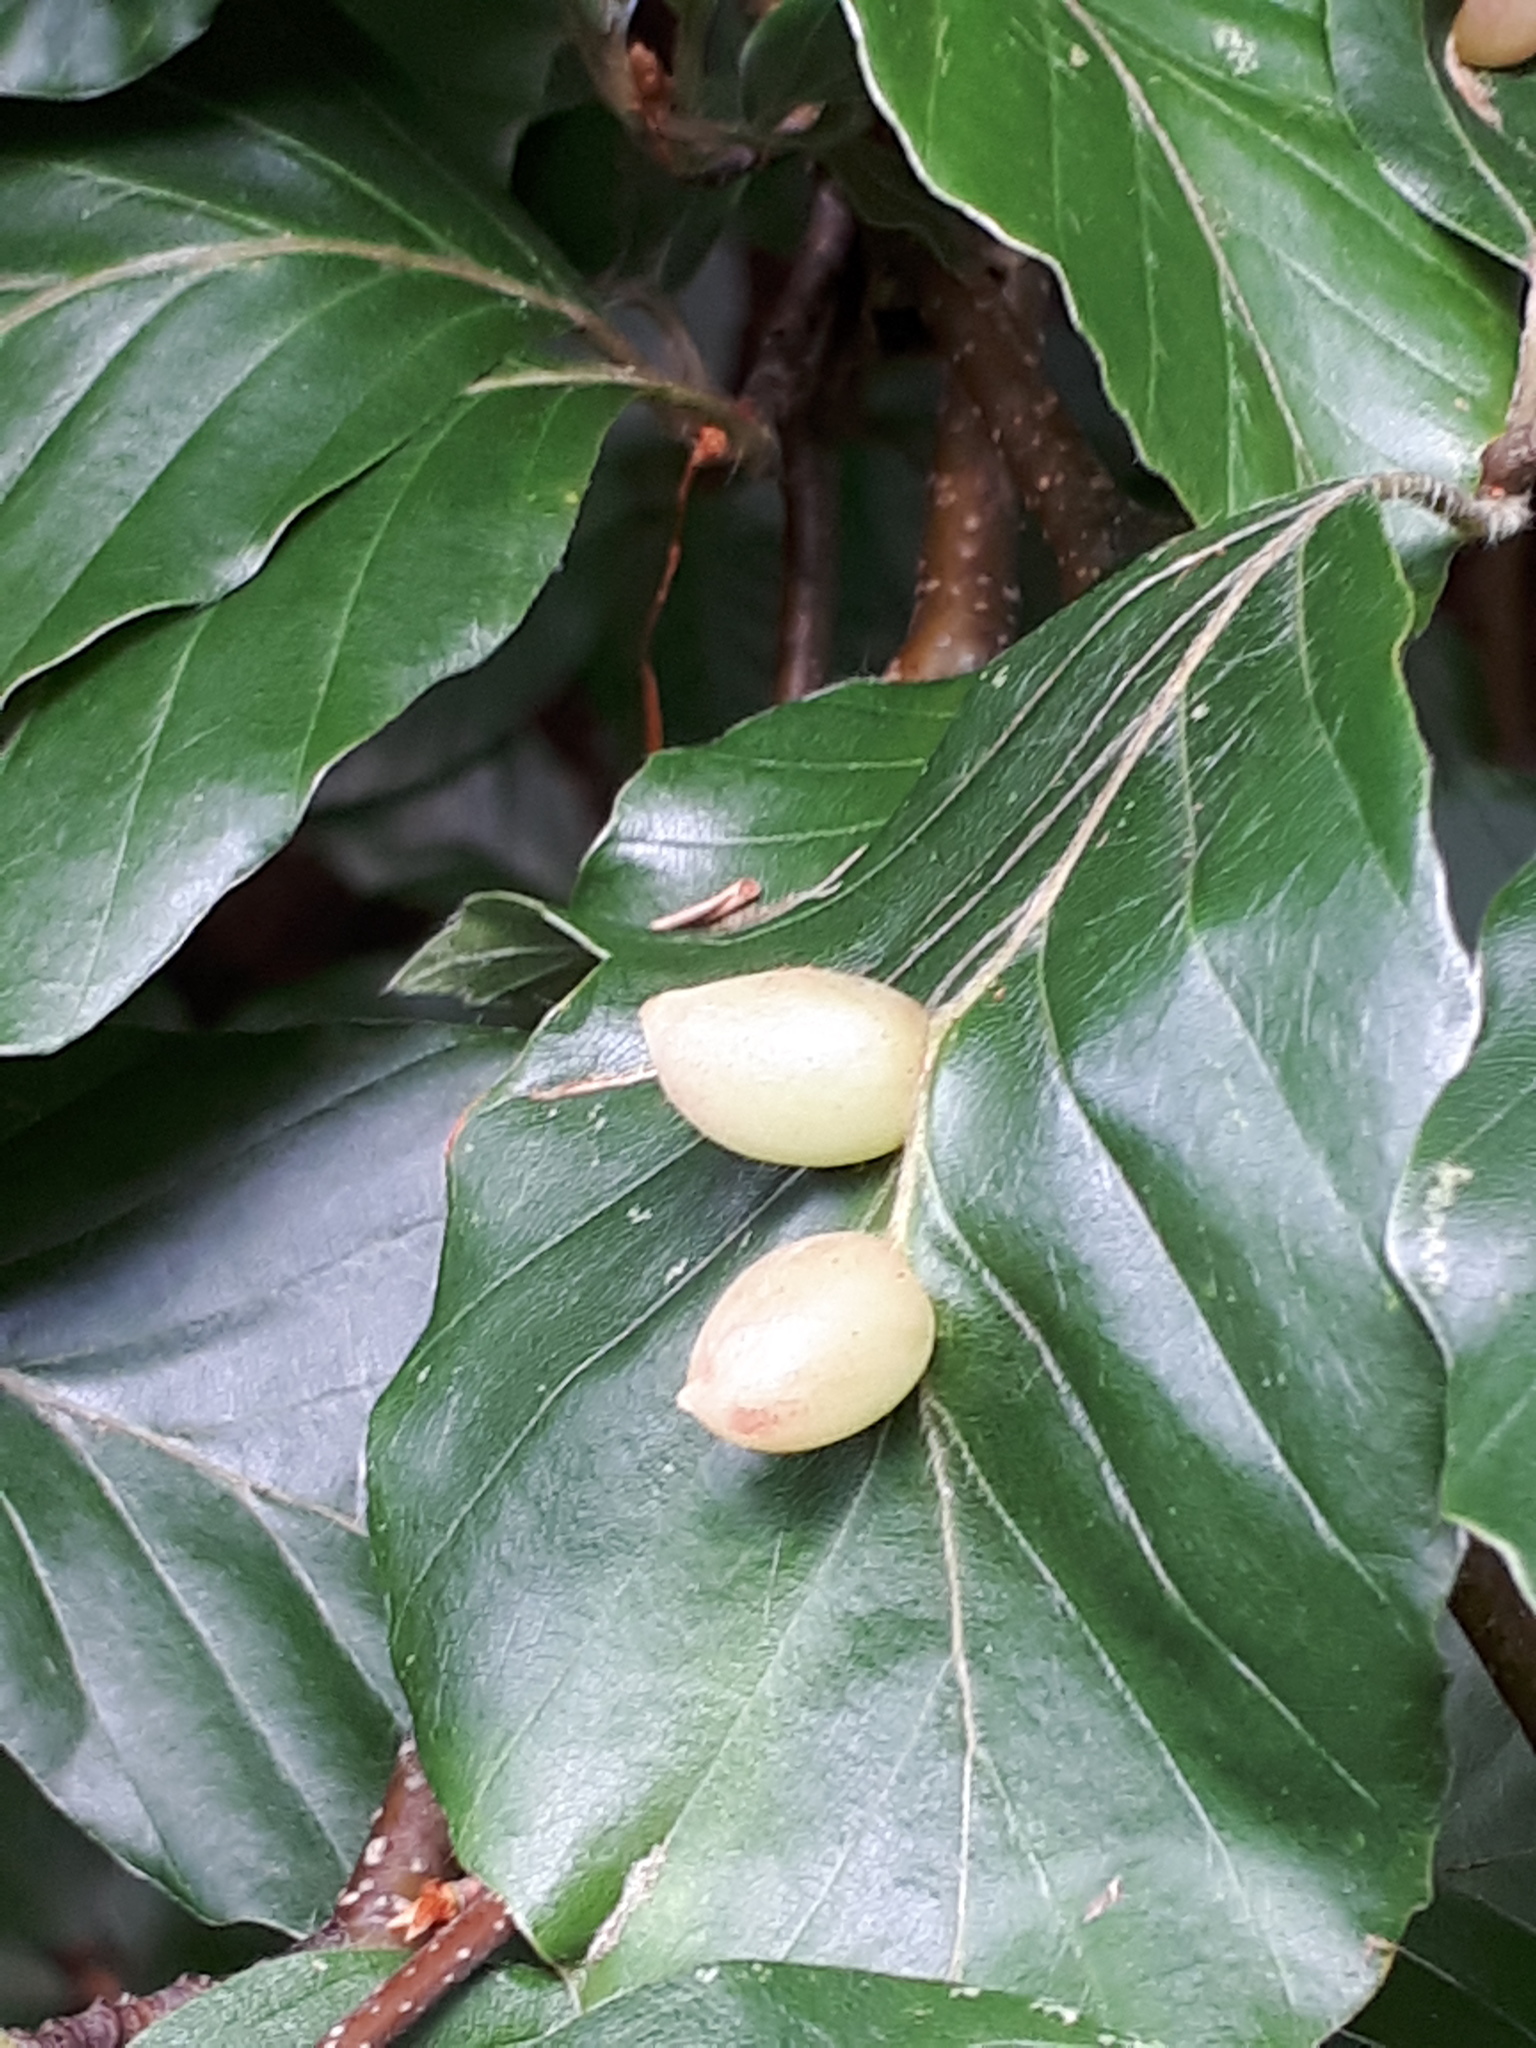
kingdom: Animalia
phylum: Arthropoda
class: Insecta
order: Diptera
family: Cecidomyiidae
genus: Mikiola
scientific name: Mikiola fagi
